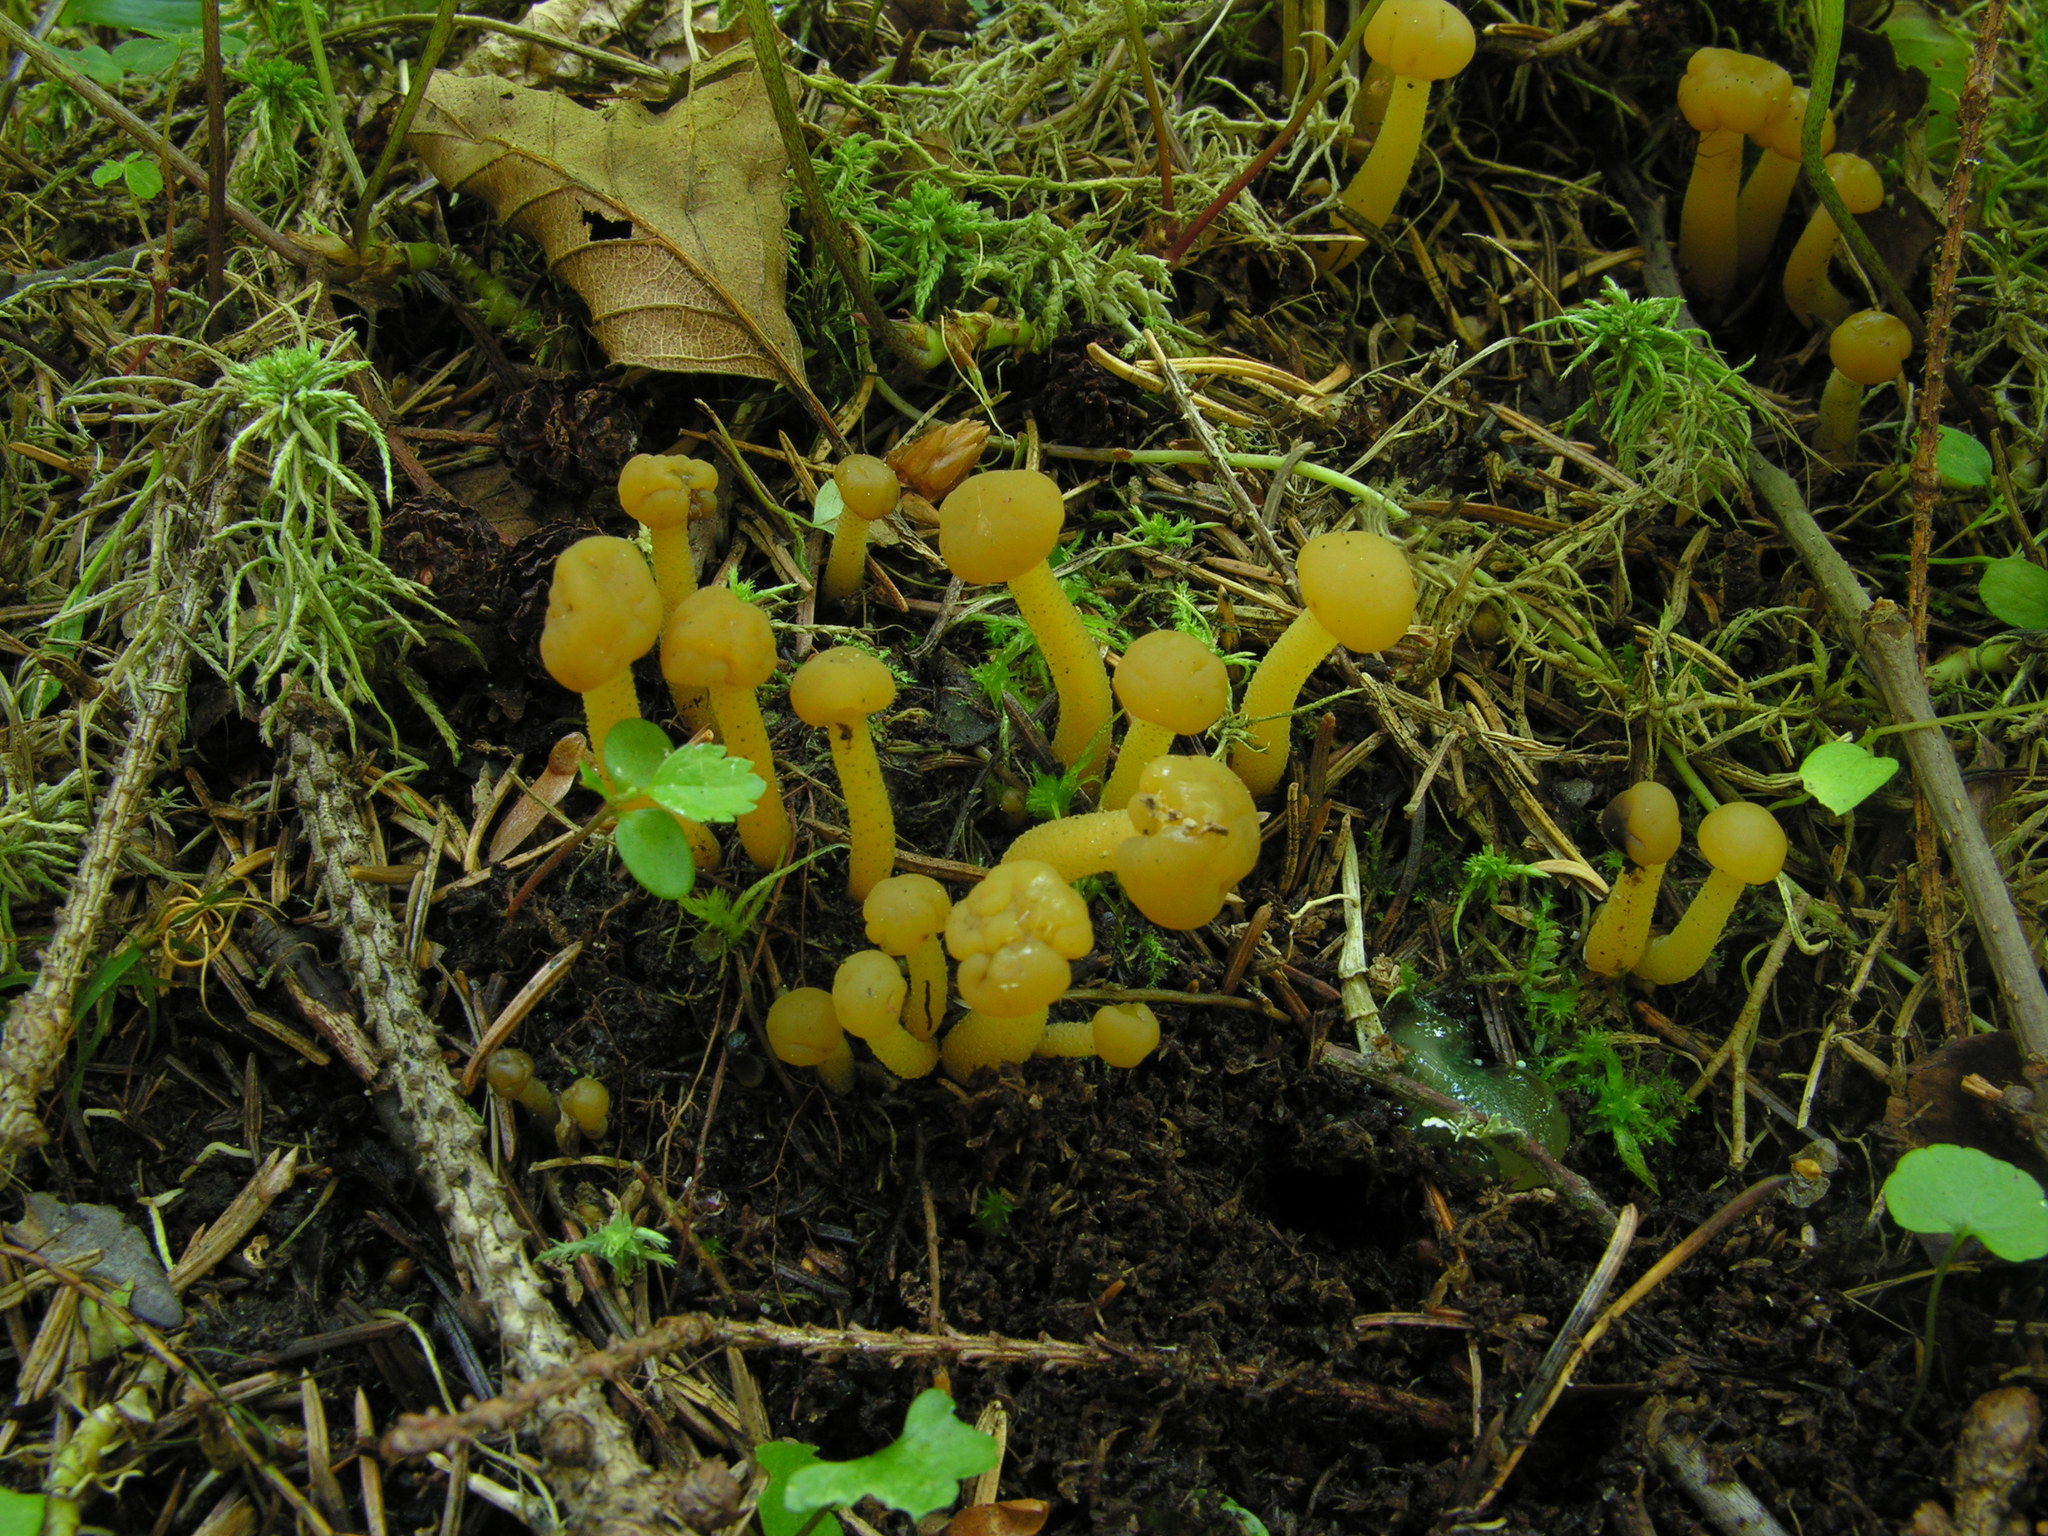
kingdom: Fungi
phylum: Ascomycota
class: Leotiomycetes
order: Leotiales
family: Leotiaceae
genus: Leotia
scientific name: Leotia lubrica
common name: Jellybaby
